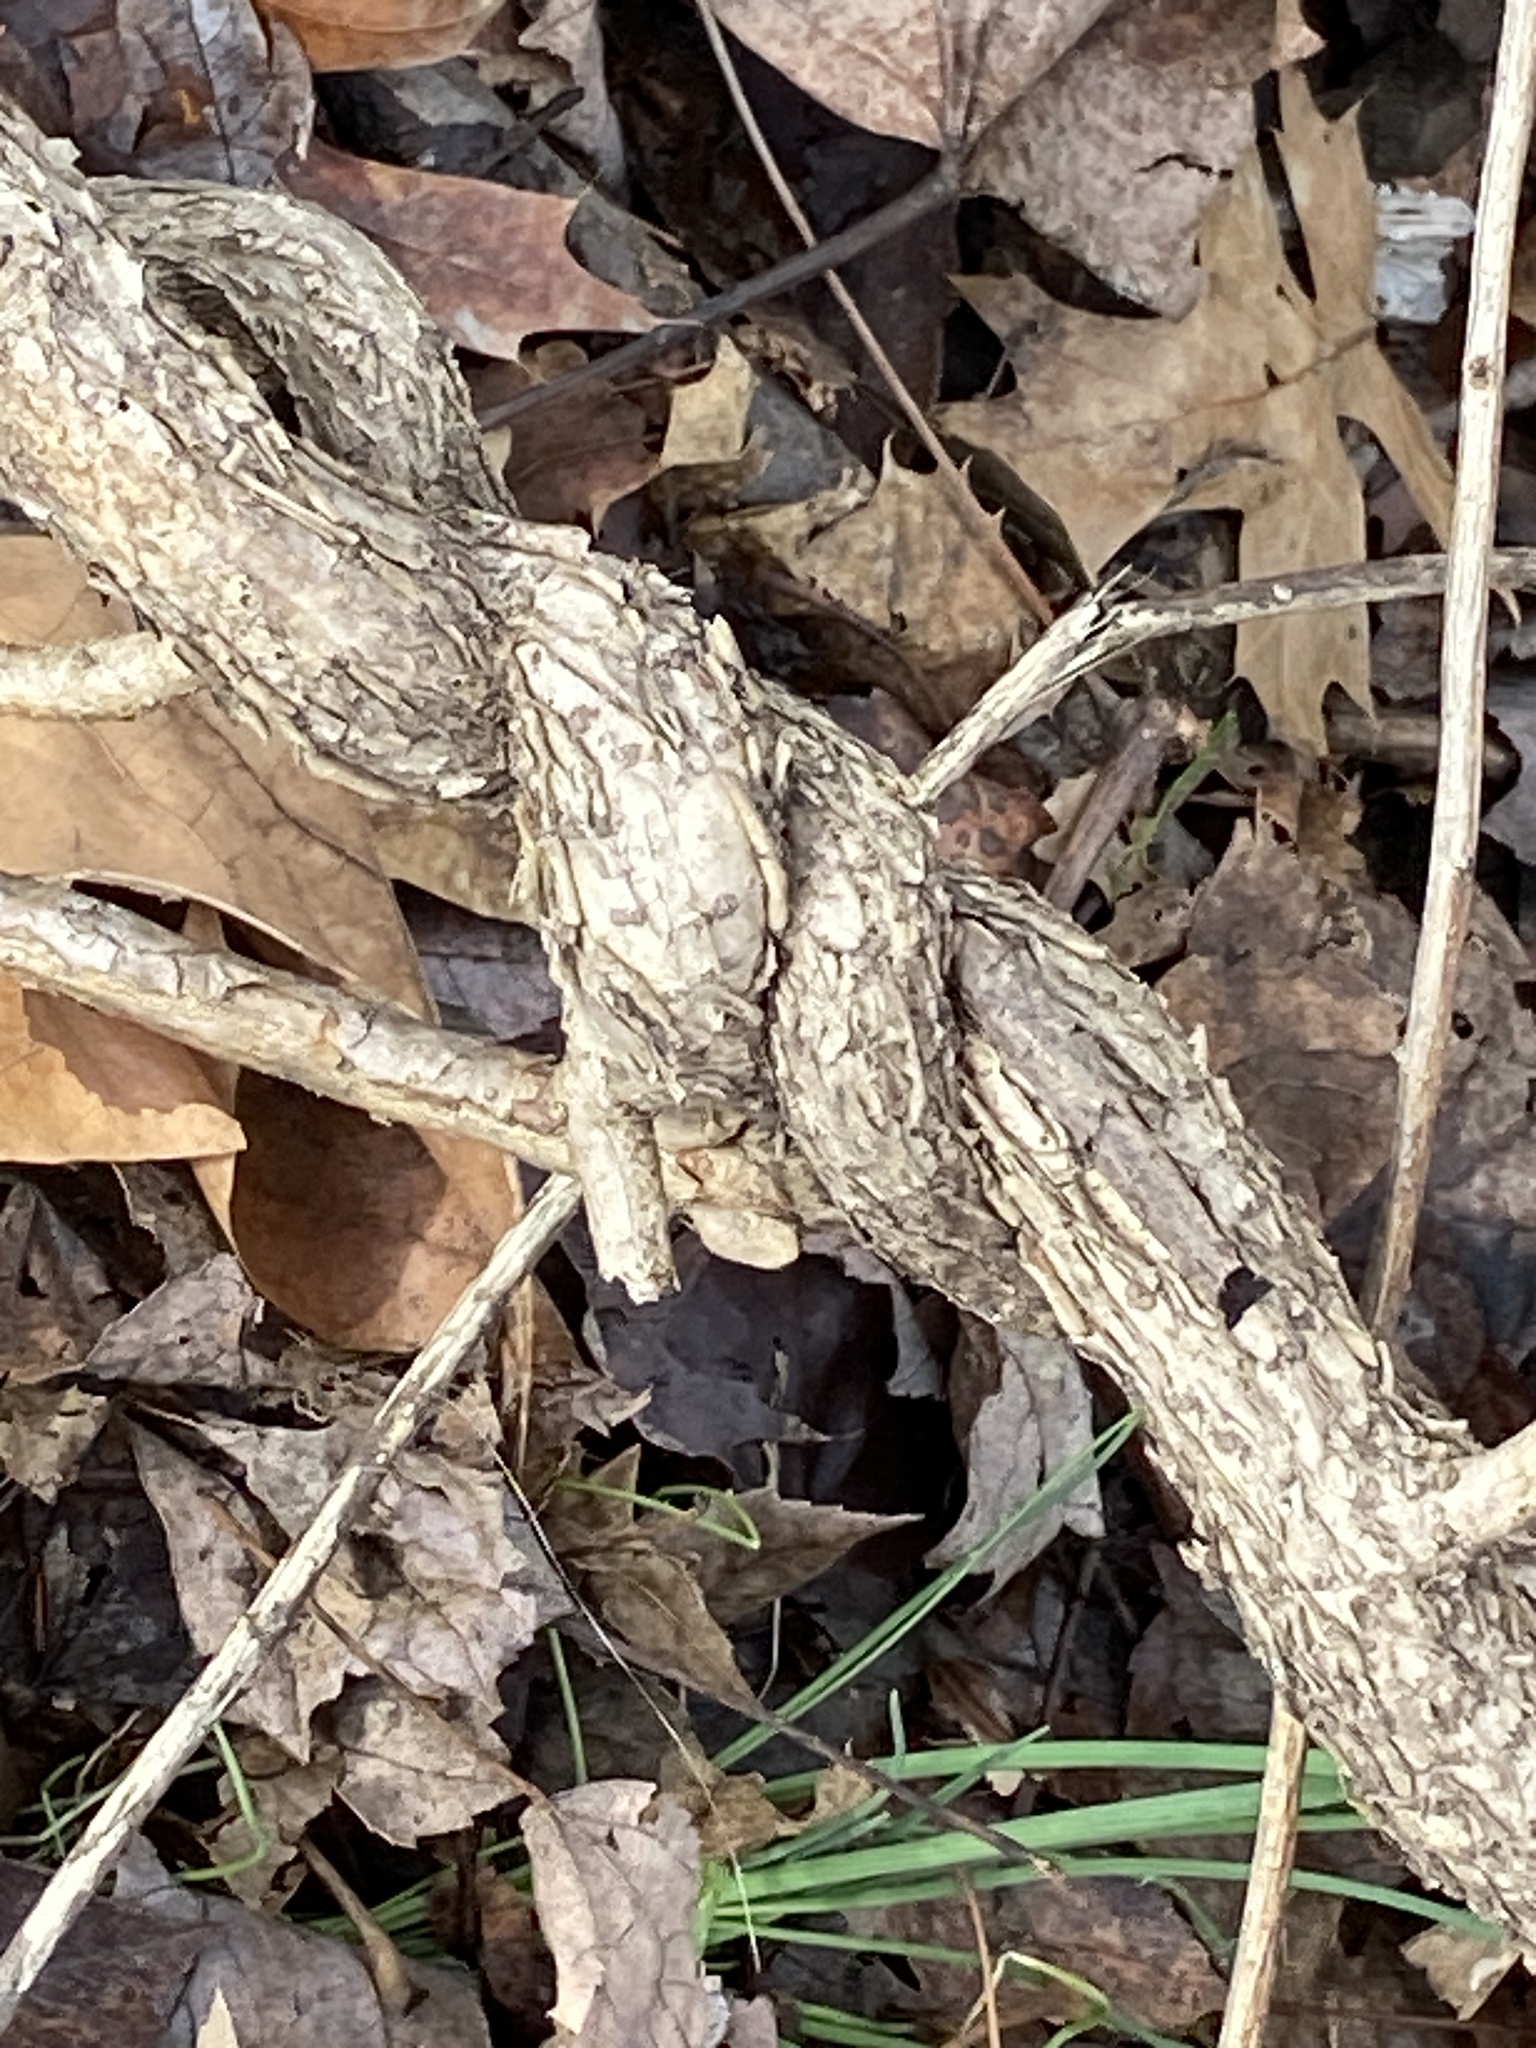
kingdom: Plantae
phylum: Tracheophyta
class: Magnoliopsida
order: Celastrales
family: Celastraceae
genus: Celastrus
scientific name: Celastrus orbiculatus
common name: Oriental bittersweet
